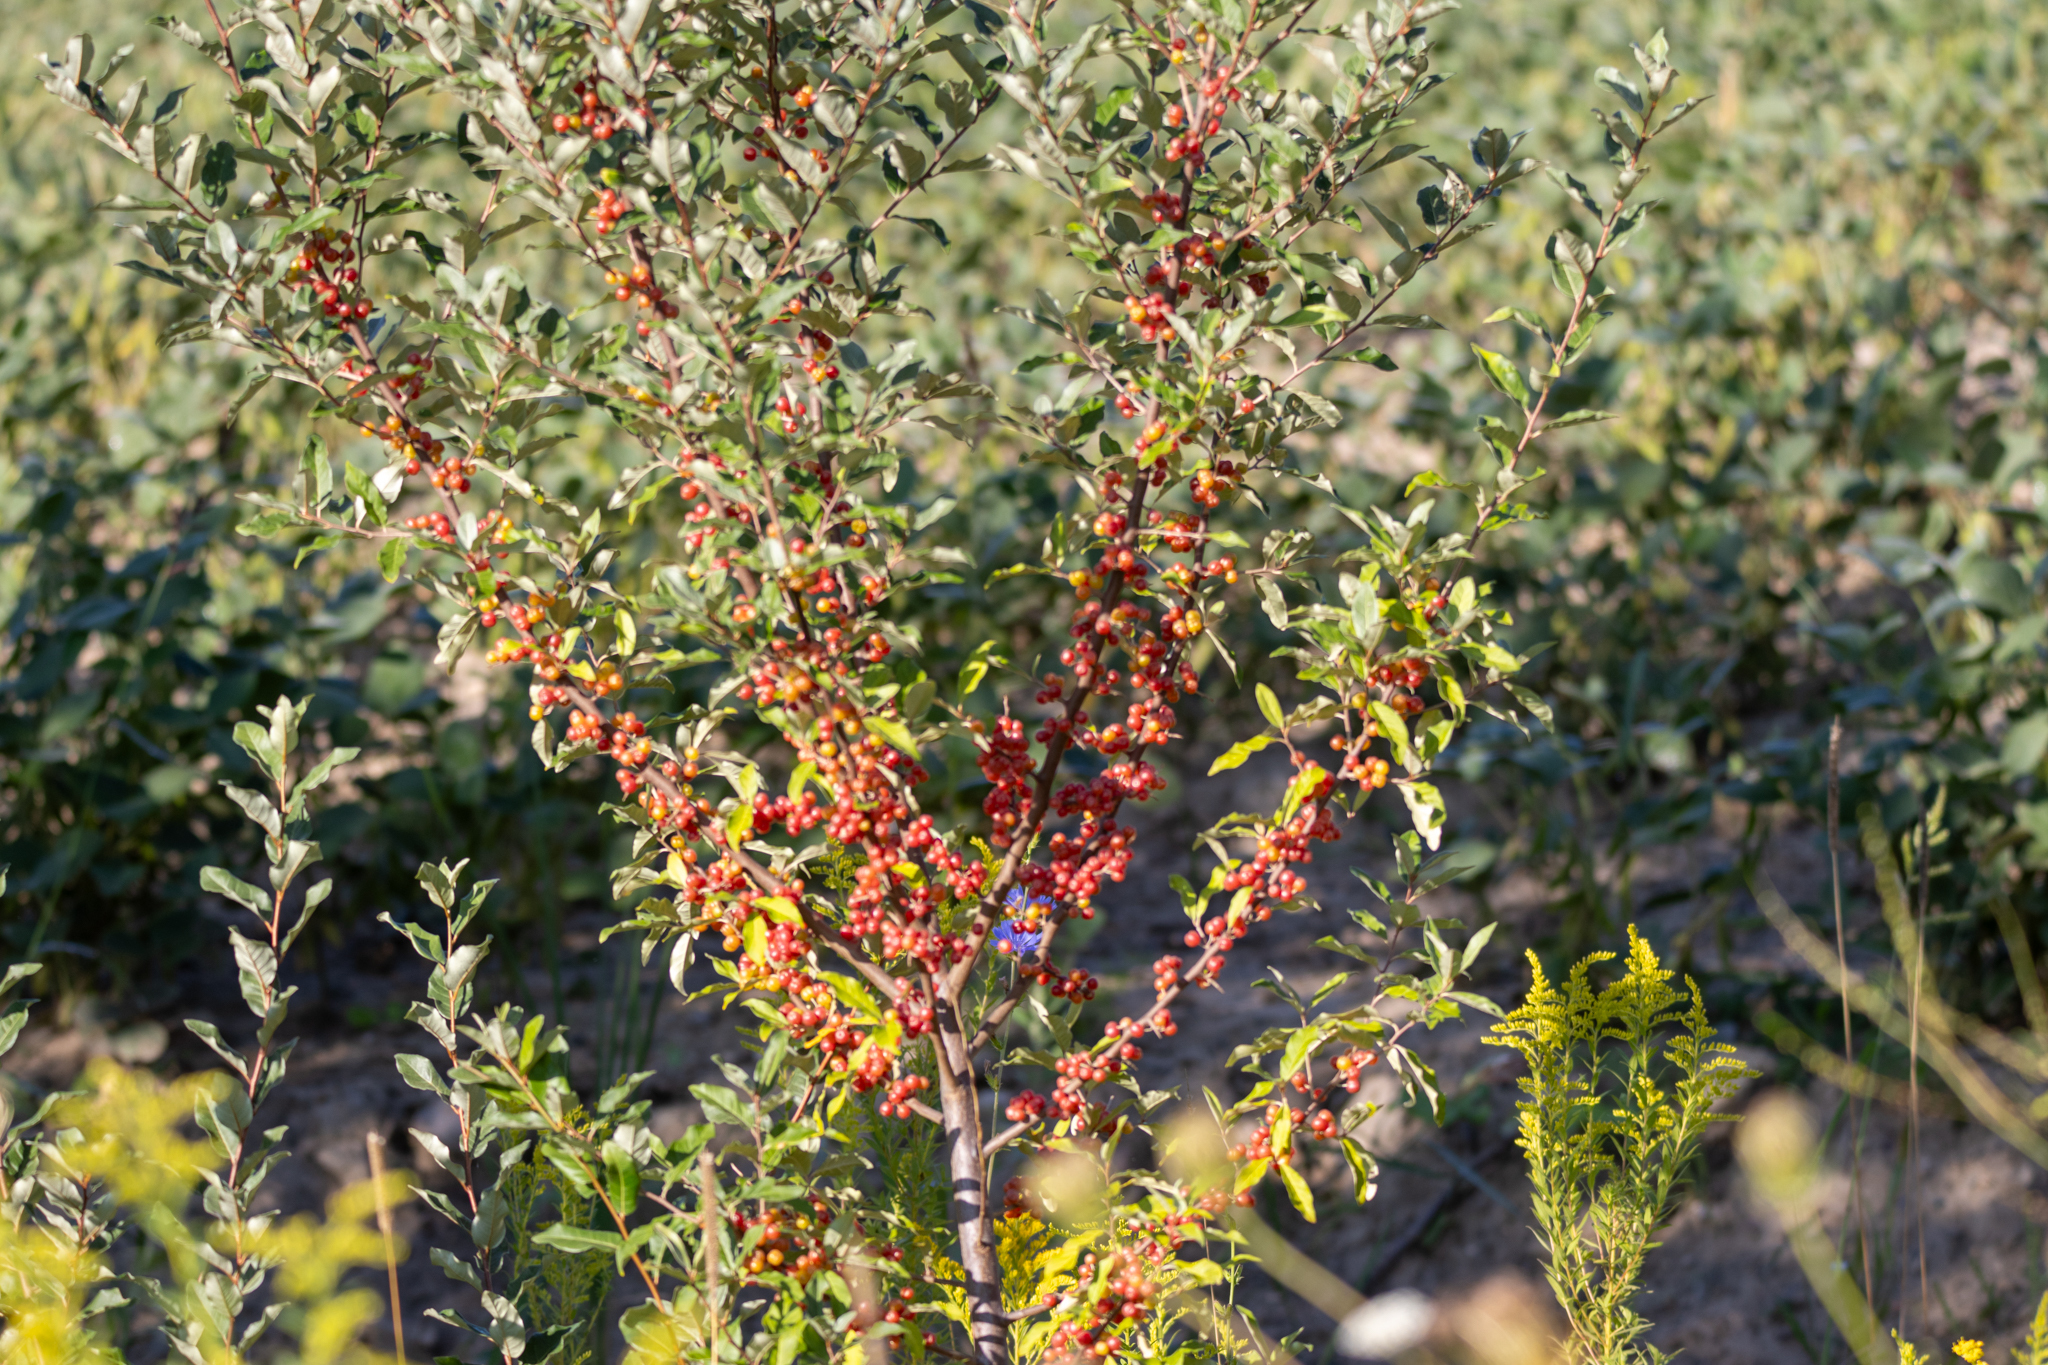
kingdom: Plantae
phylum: Tracheophyta
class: Magnoliopsida
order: Rosales
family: Elaeagnaceae
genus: Elaeagnus
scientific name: Elaeagnus umbellata
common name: Autumn olive
